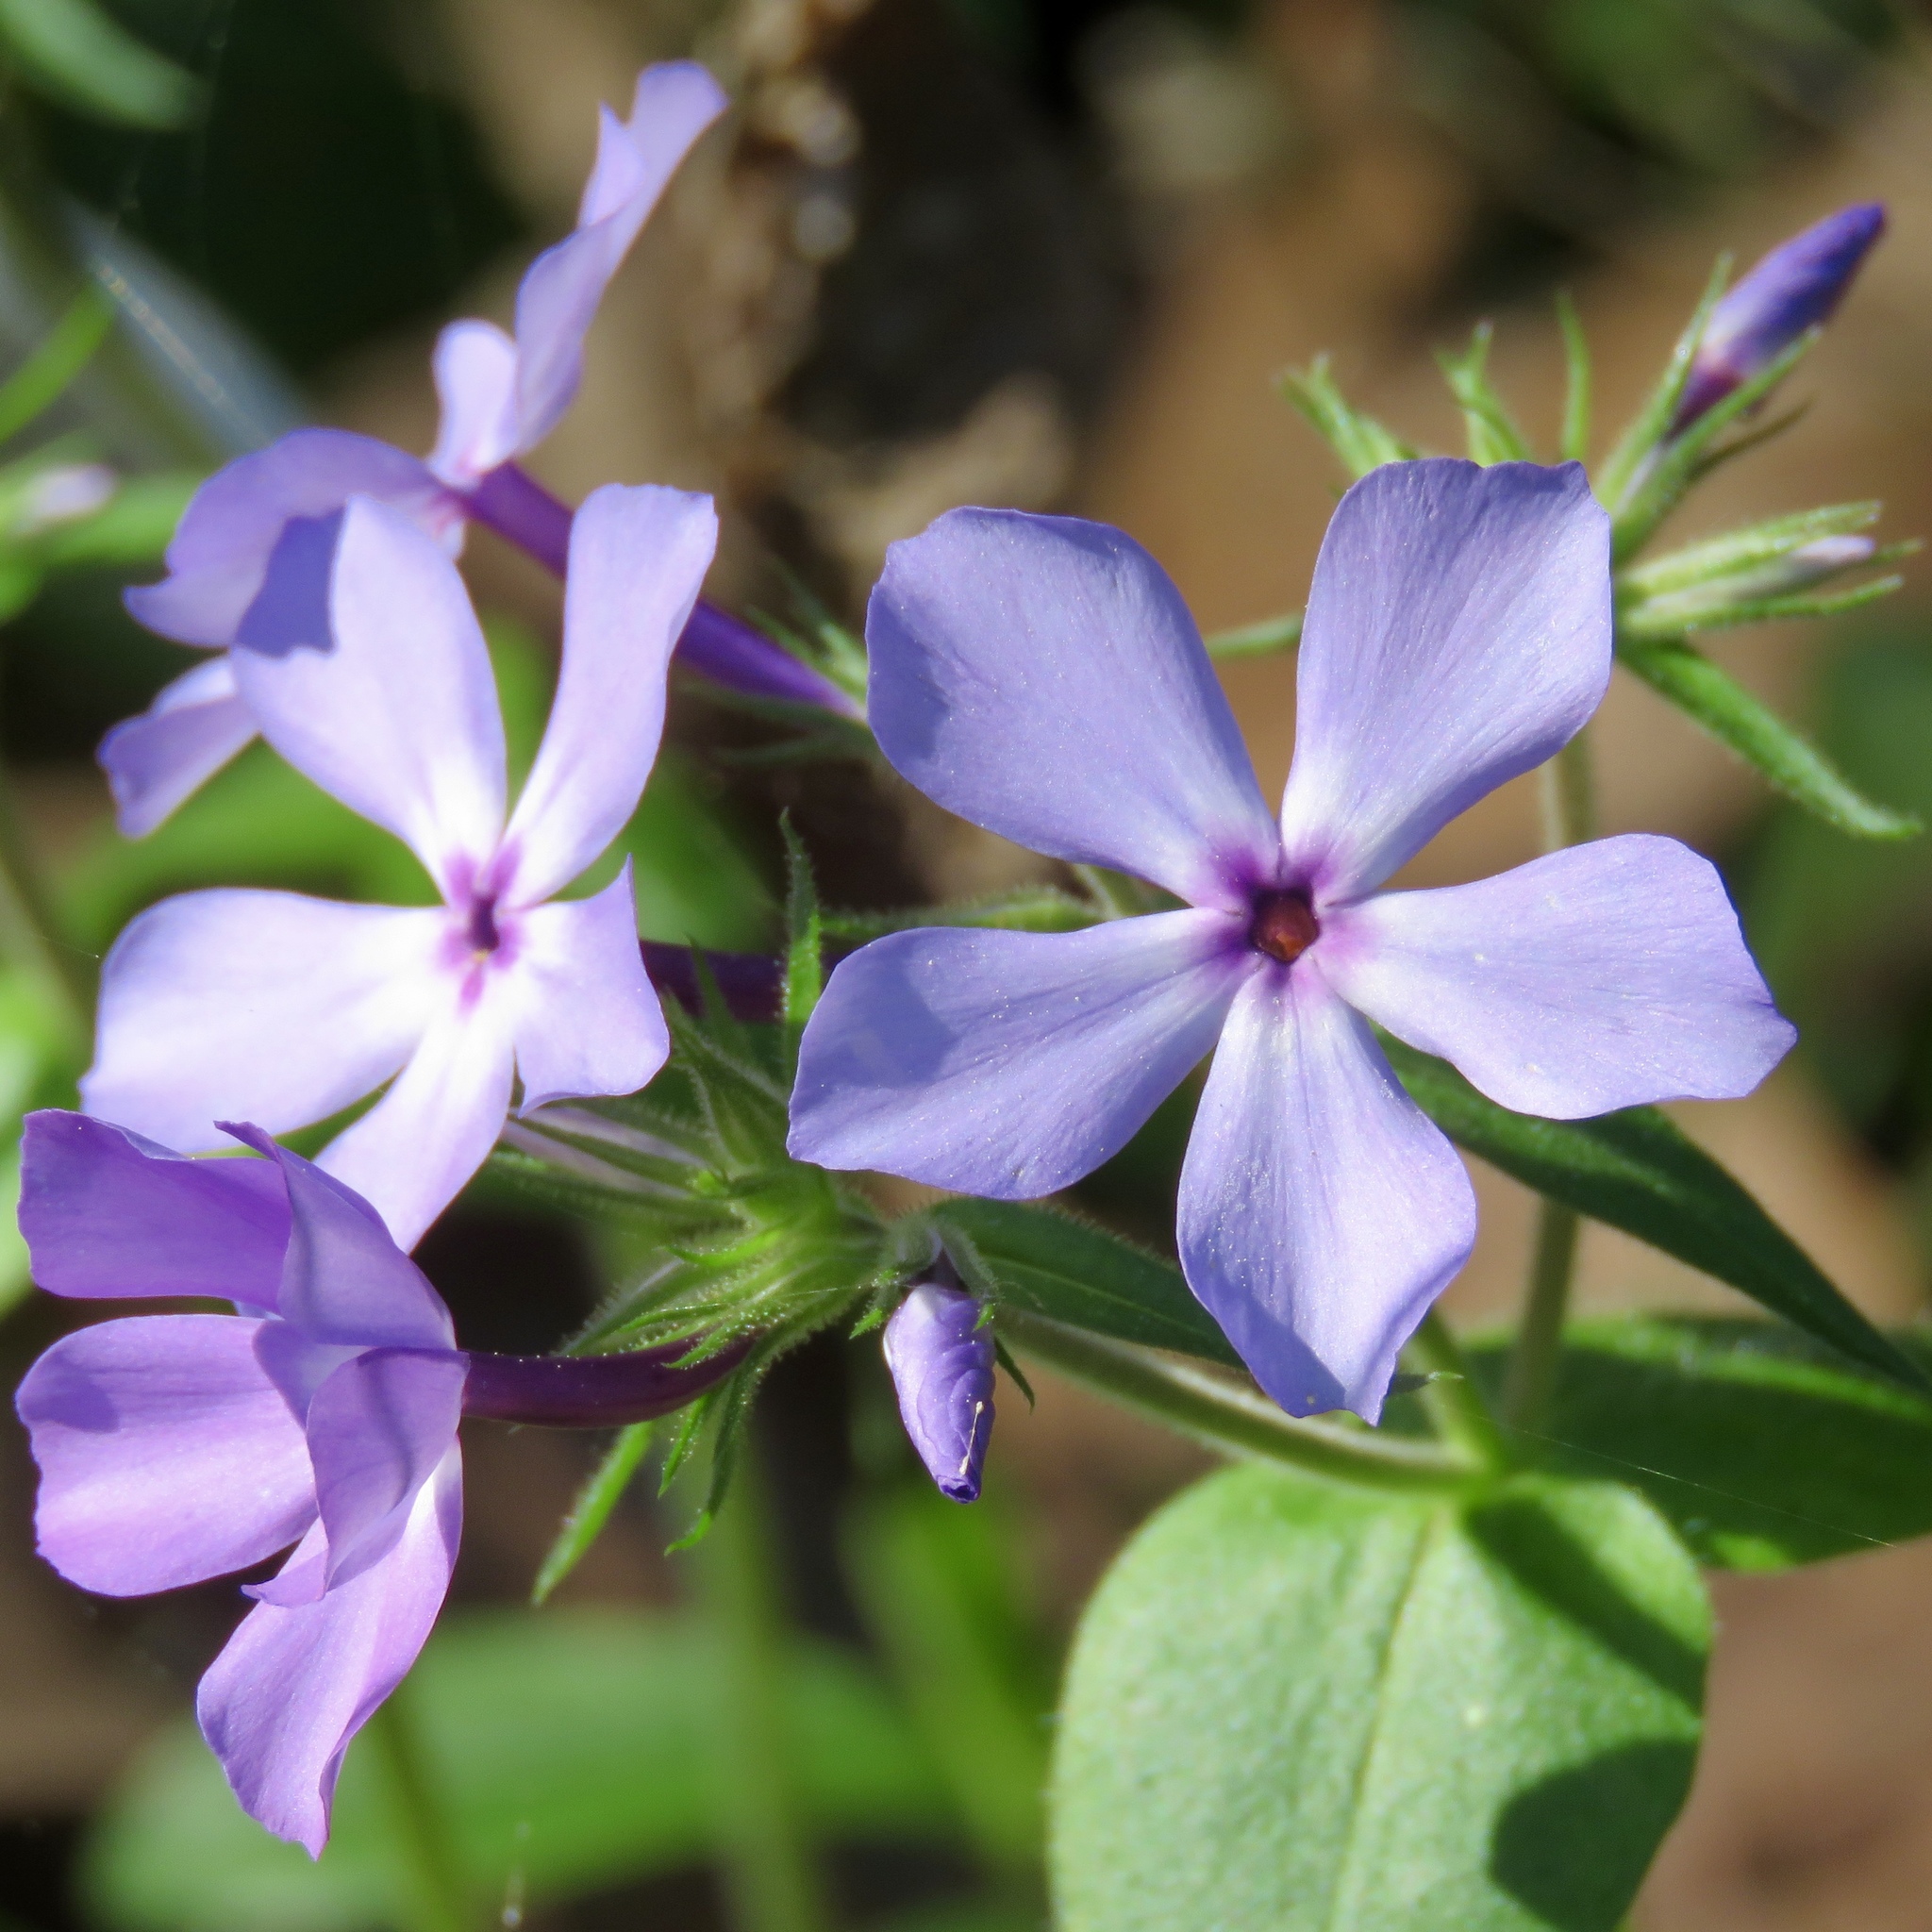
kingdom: Plantae
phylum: Tracheophyta
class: Magnoliopsida
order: Ericales
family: Polemoniaceae
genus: Phlox
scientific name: Phlox divaricata
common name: Blue phlox
